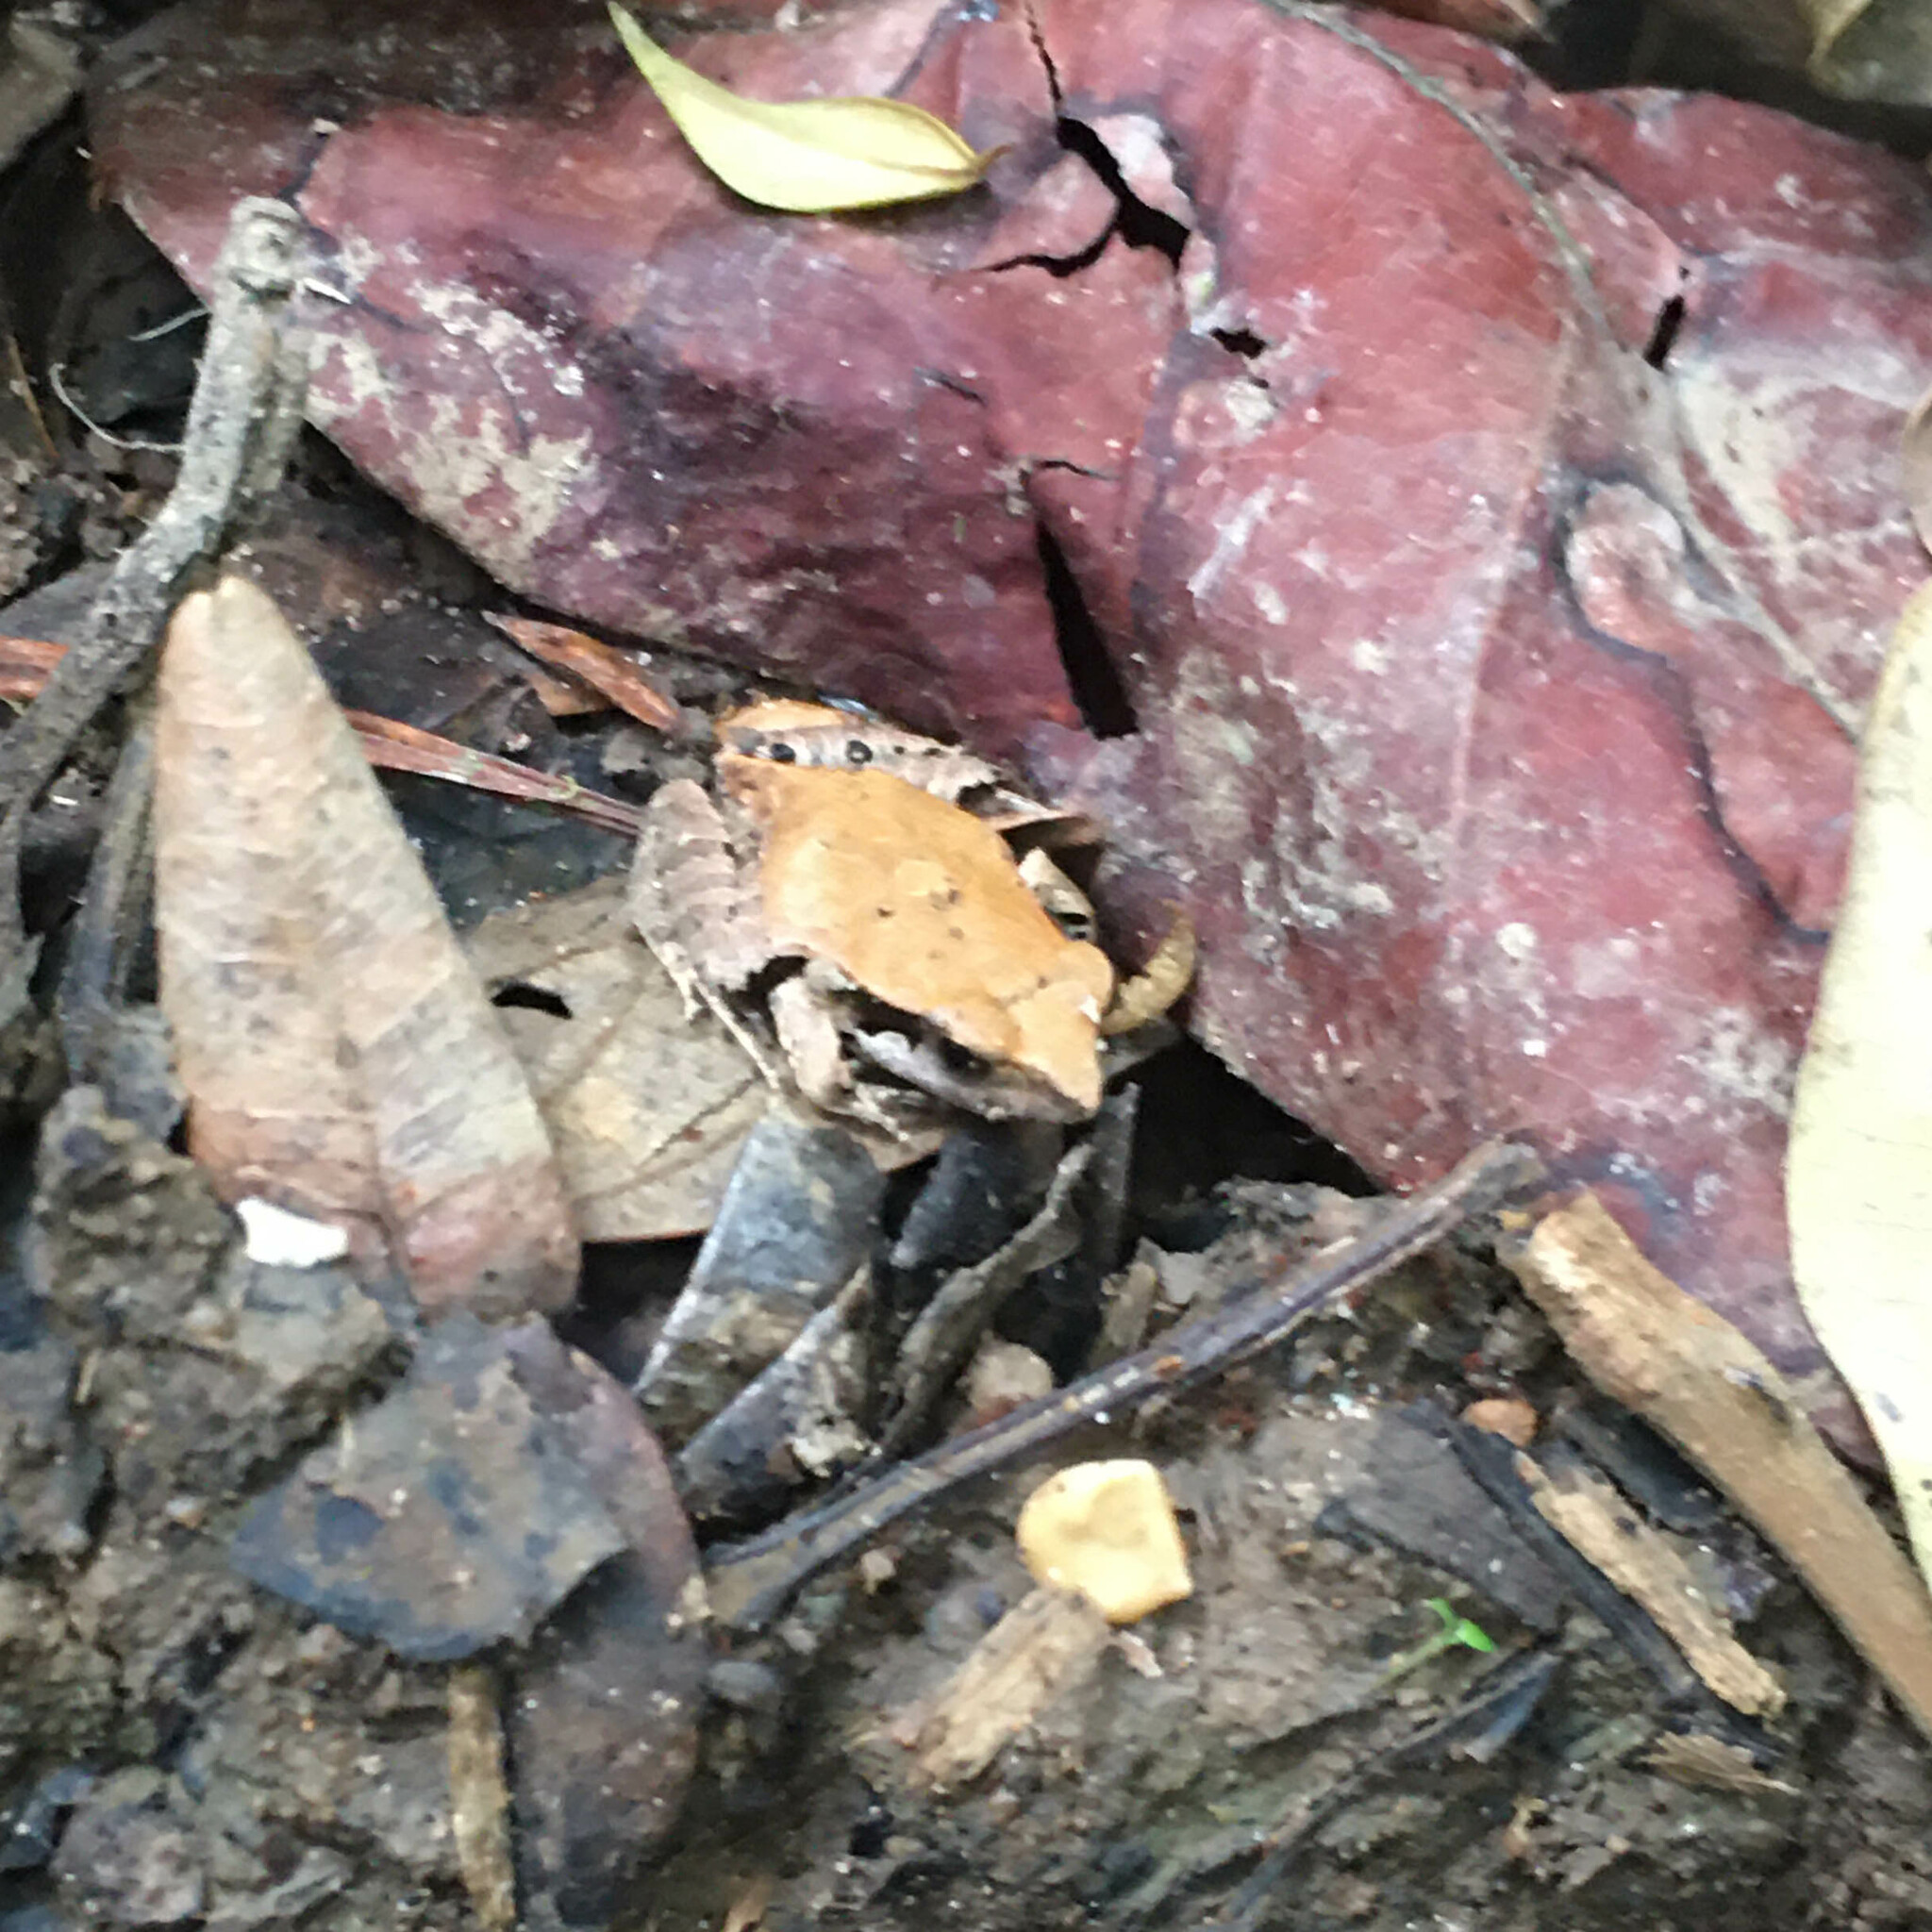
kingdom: Animalia
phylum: Chordata
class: Amphibia
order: Anura
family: Leptodactylidae
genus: Physalaemus
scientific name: Physalaemus albifrons
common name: Bahia dwarf frog
